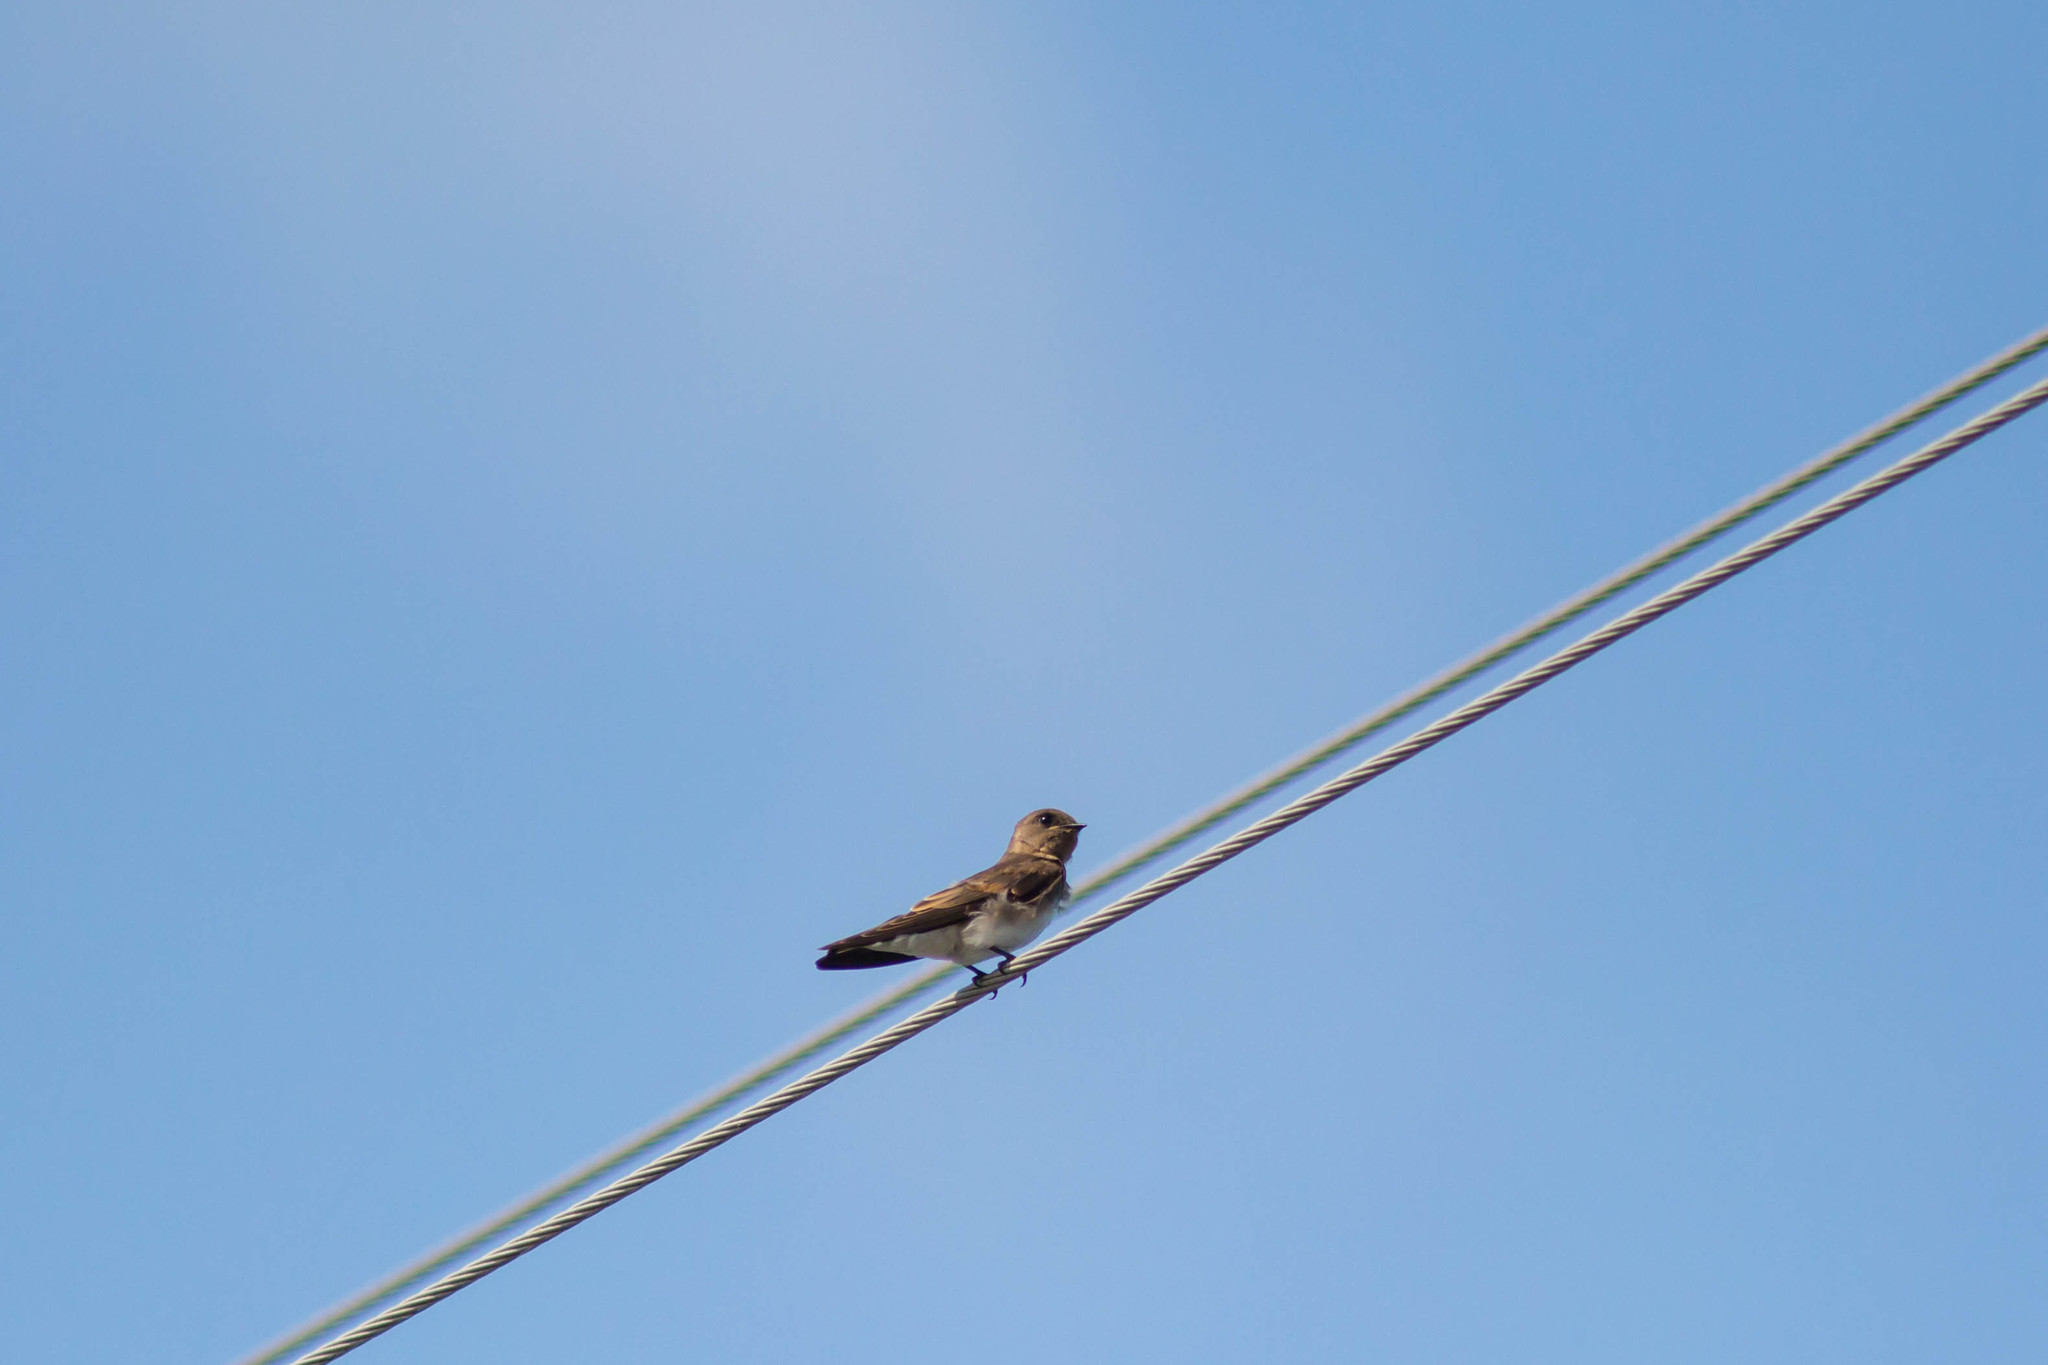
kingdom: Animalia
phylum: Chordata
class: Aves
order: Passeriformes
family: Hirundinidae
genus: Stelgidopteryx
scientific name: Stelgidopteryx serripennis
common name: Northern rough-winged swallow
